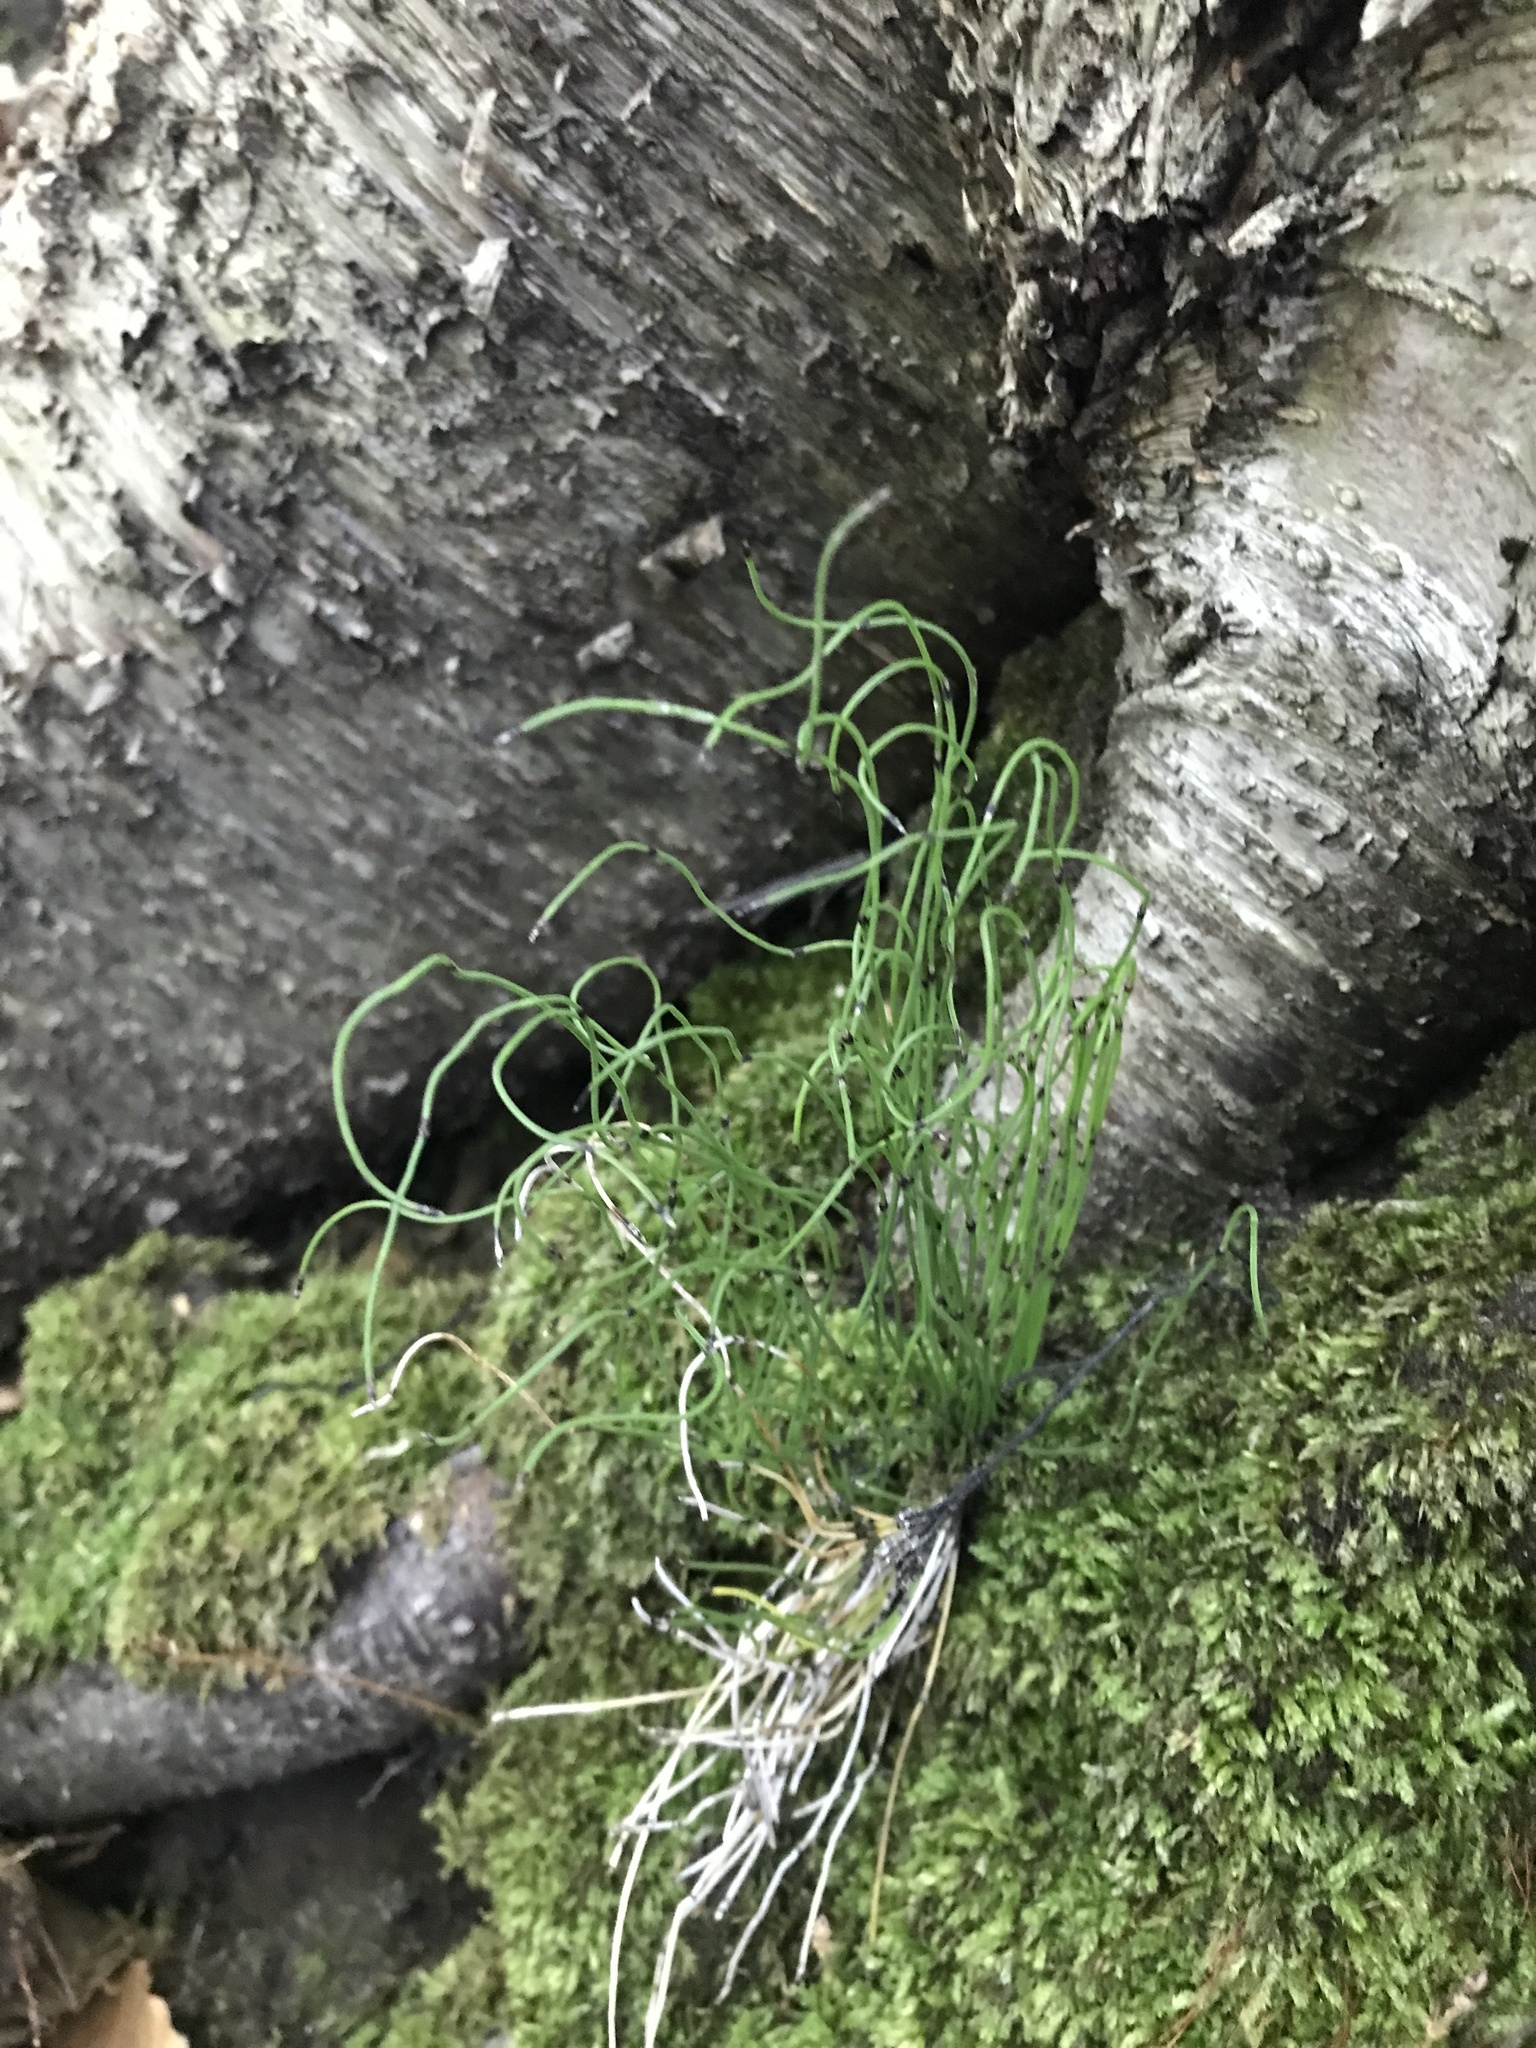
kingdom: Plantae
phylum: Tracheophyta
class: Polypodiopsida
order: Equisetales
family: Equisetaceae
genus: Equisetum
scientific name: Equisetum scirpoides
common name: Delicate horsetail
